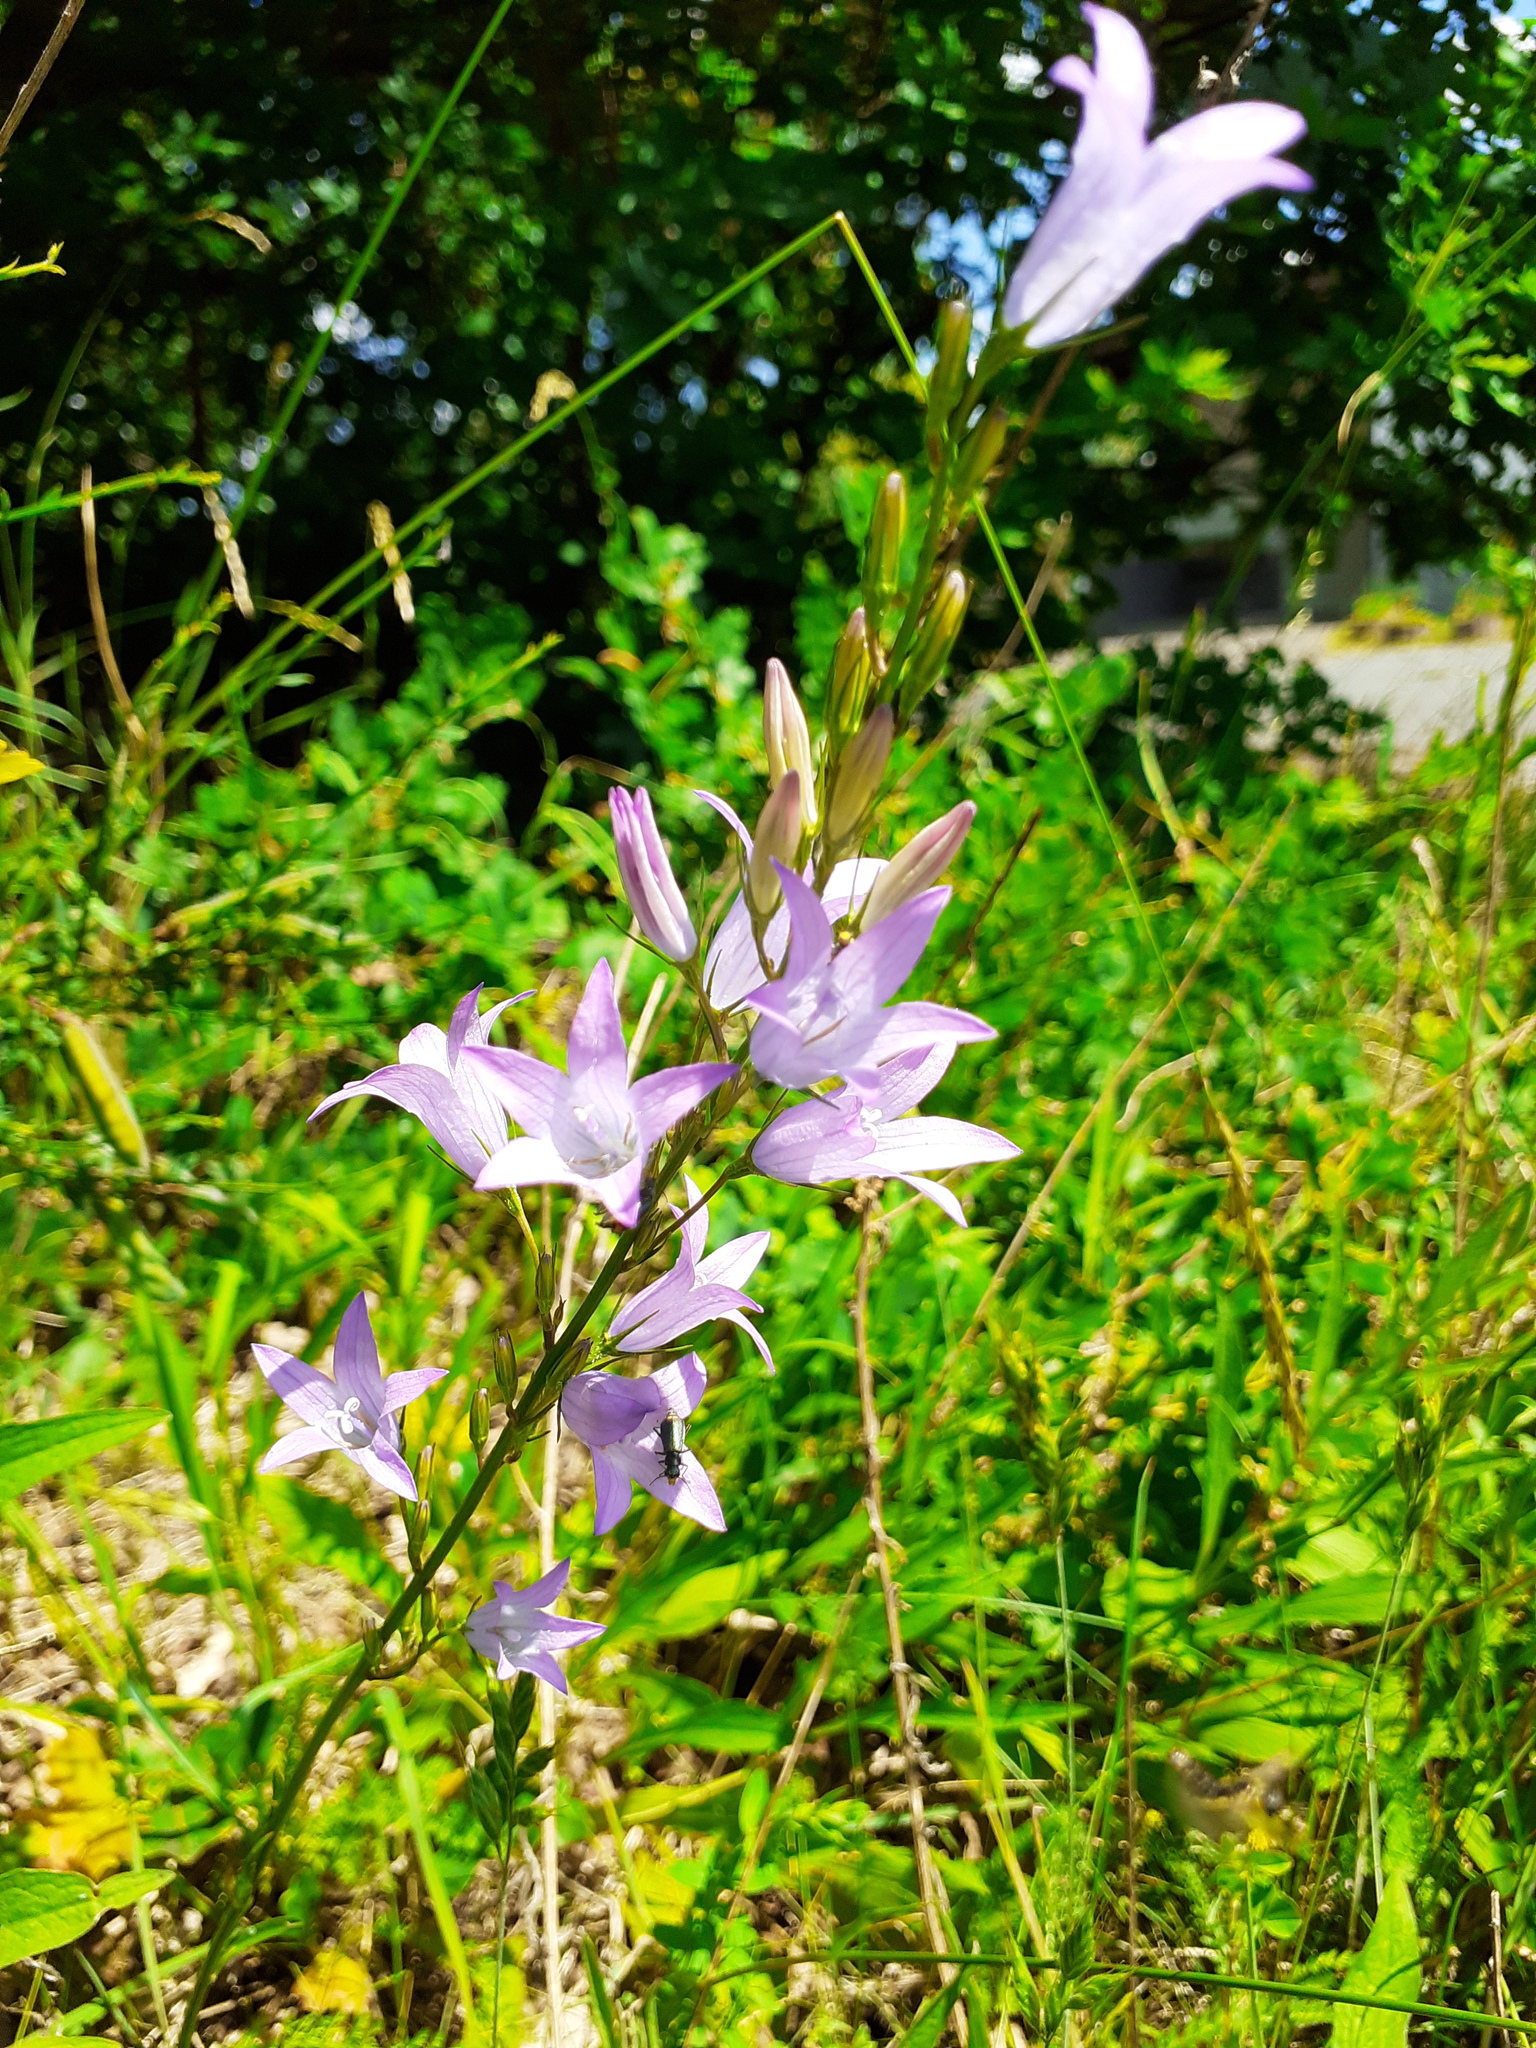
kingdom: Plantae
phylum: Tracheophyta
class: Magnoliopsida
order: Asterales
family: Campanulaceae
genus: Campanula
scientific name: Campanula rapunculus
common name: Rampion bellflower
